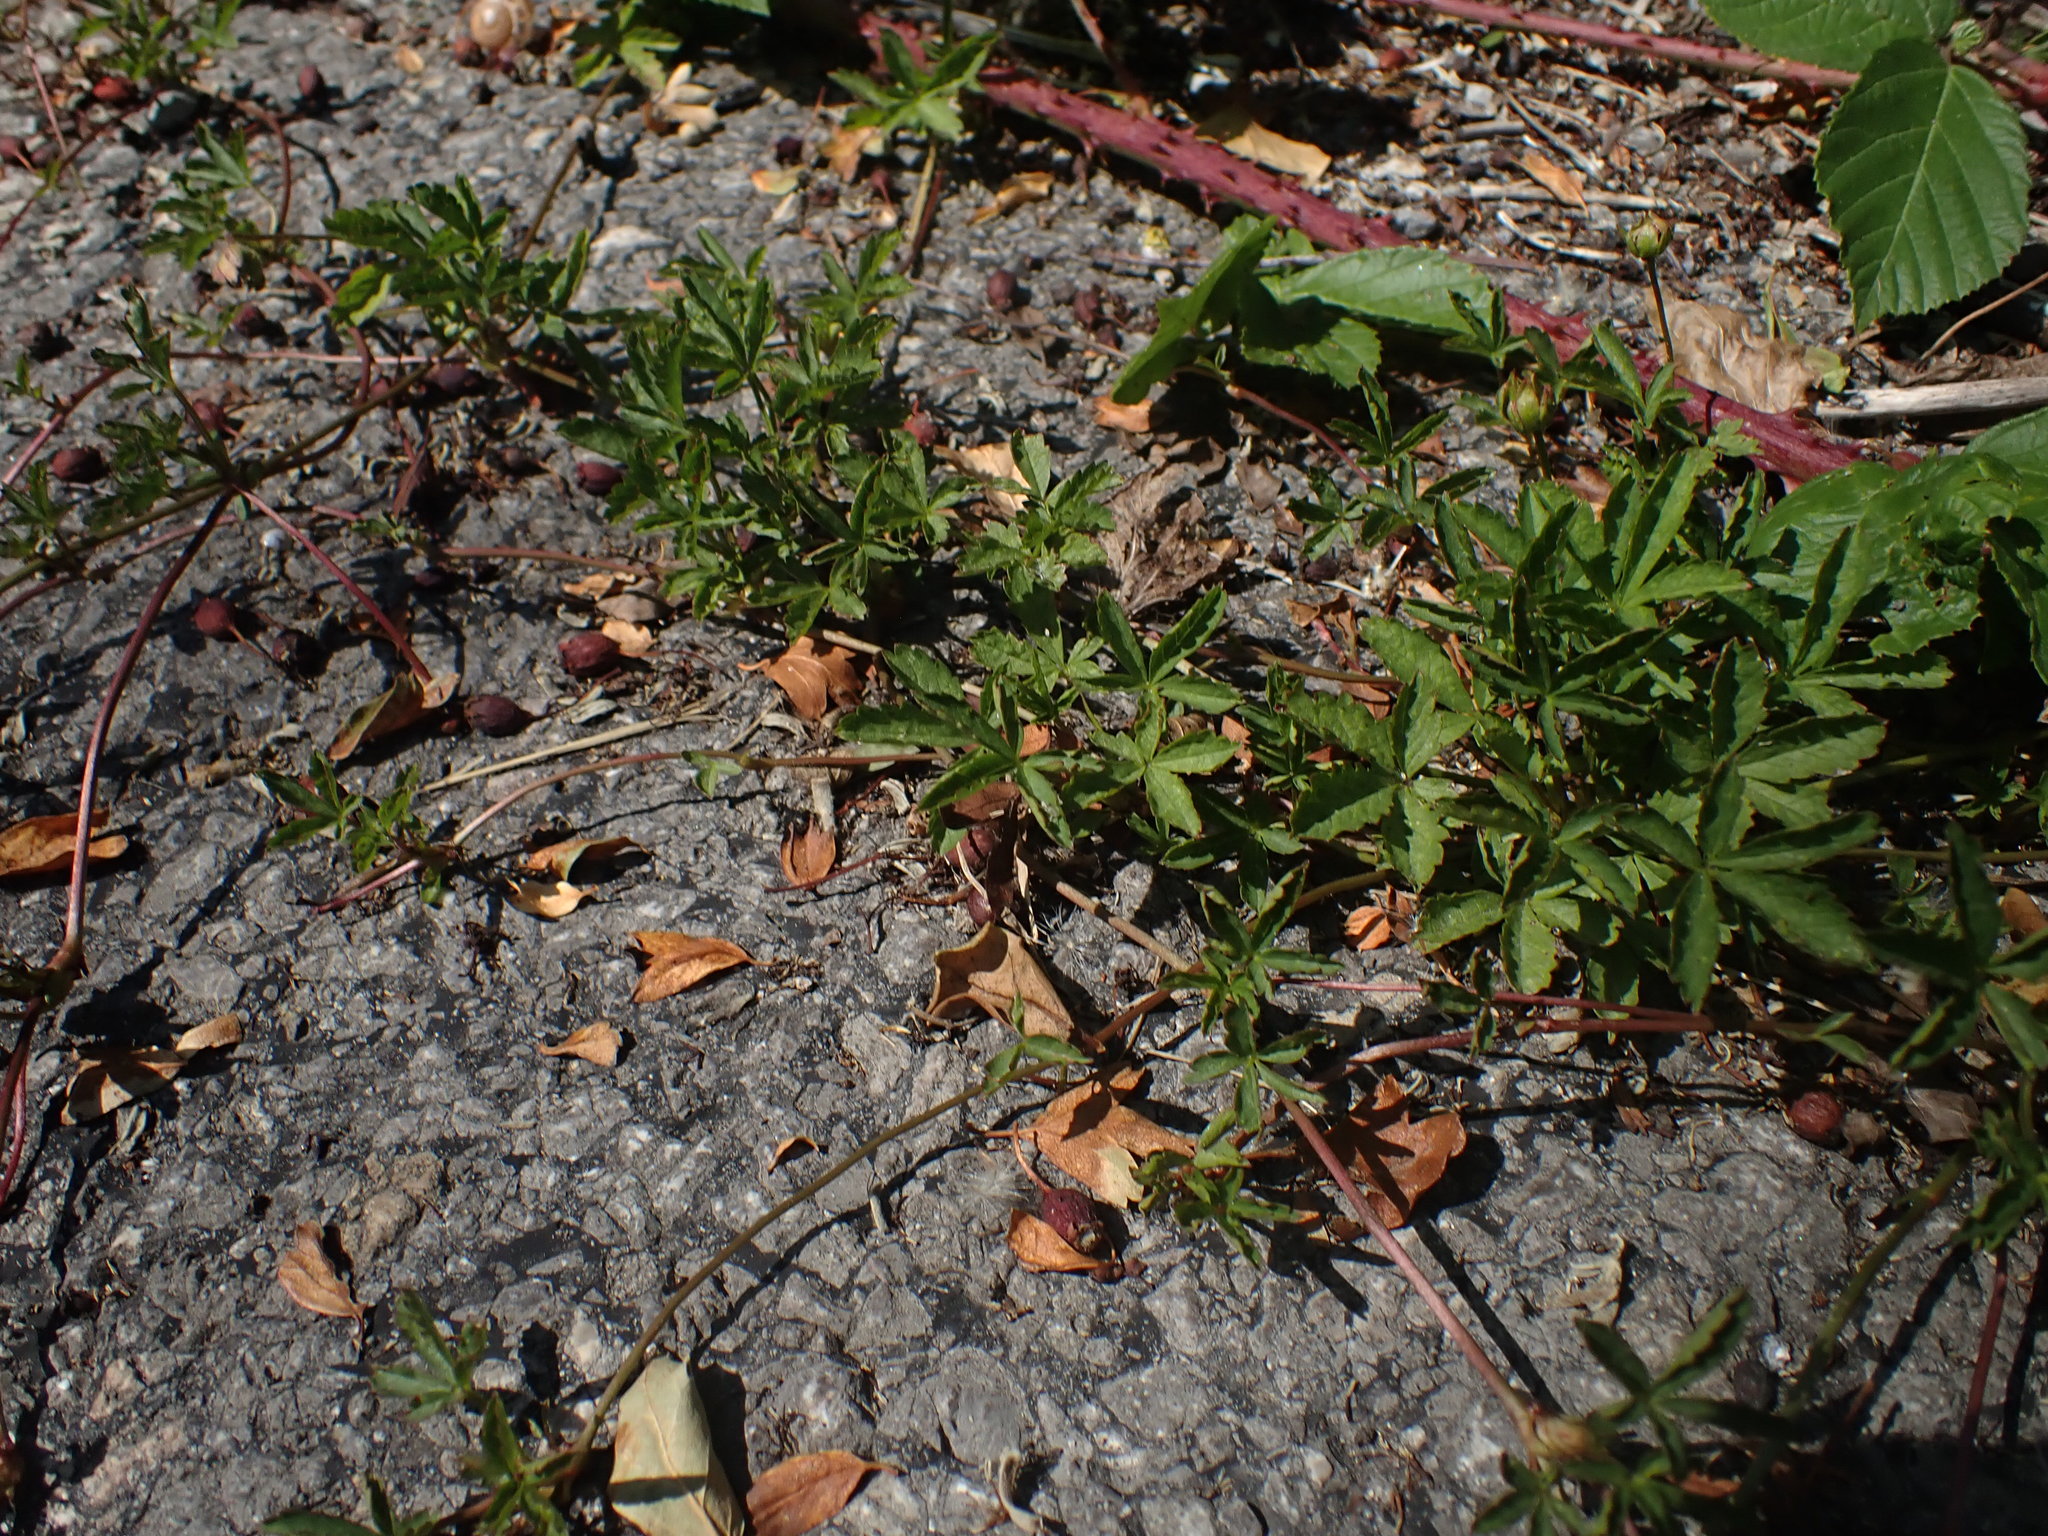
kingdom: Plantae
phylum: Tracheophyta
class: Magnoliopsida
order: Rosales
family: Rosaceae
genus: Potentilla
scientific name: Potentilla reptans
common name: Creeping cinquefoil
